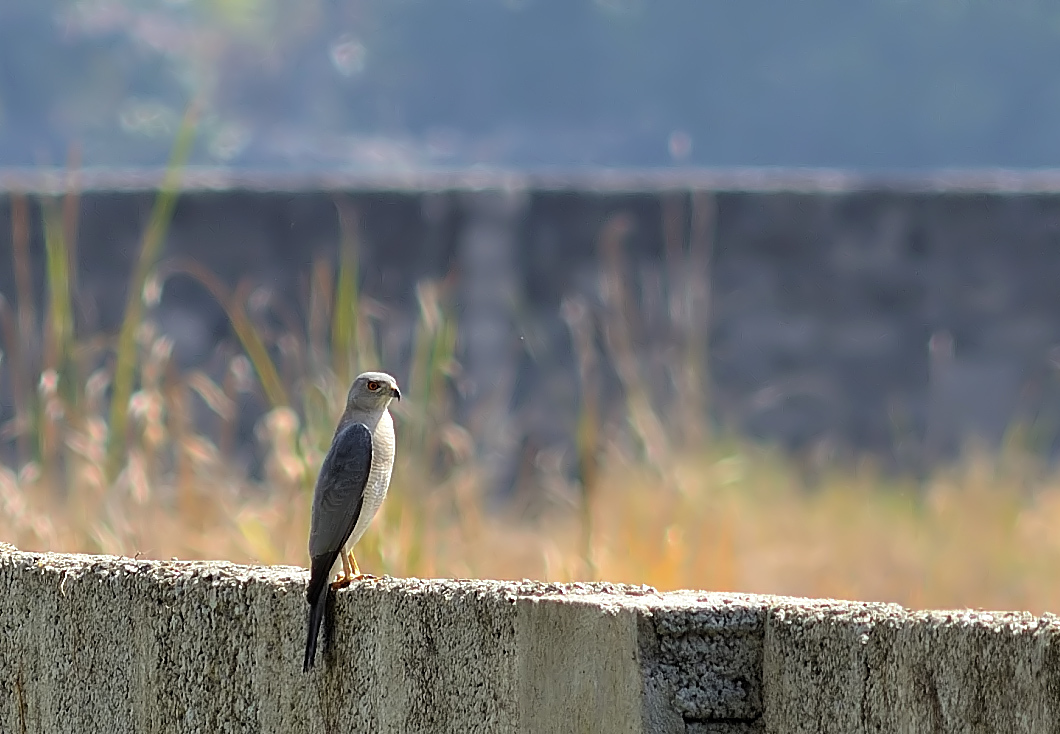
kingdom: Animalia
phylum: Chordata
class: Aves
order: Accipitriformes
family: Accipitridae
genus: Accipiter
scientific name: Accipiter badius
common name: Shikra
